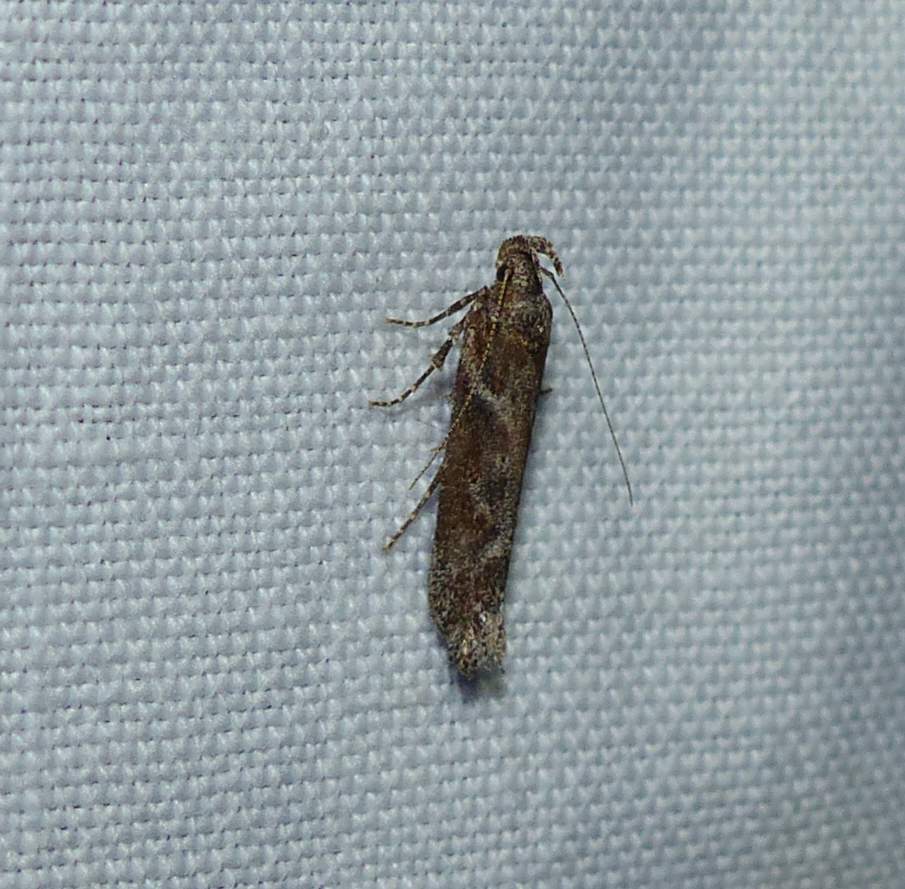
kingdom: Animalia
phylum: Arthropoda
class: Insecta
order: Lepidoptera
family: Gelechiidae
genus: Gnorimoschema
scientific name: Gnorimoschema gallaesolidaginis
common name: Goldenrod elliptical-gall moth
